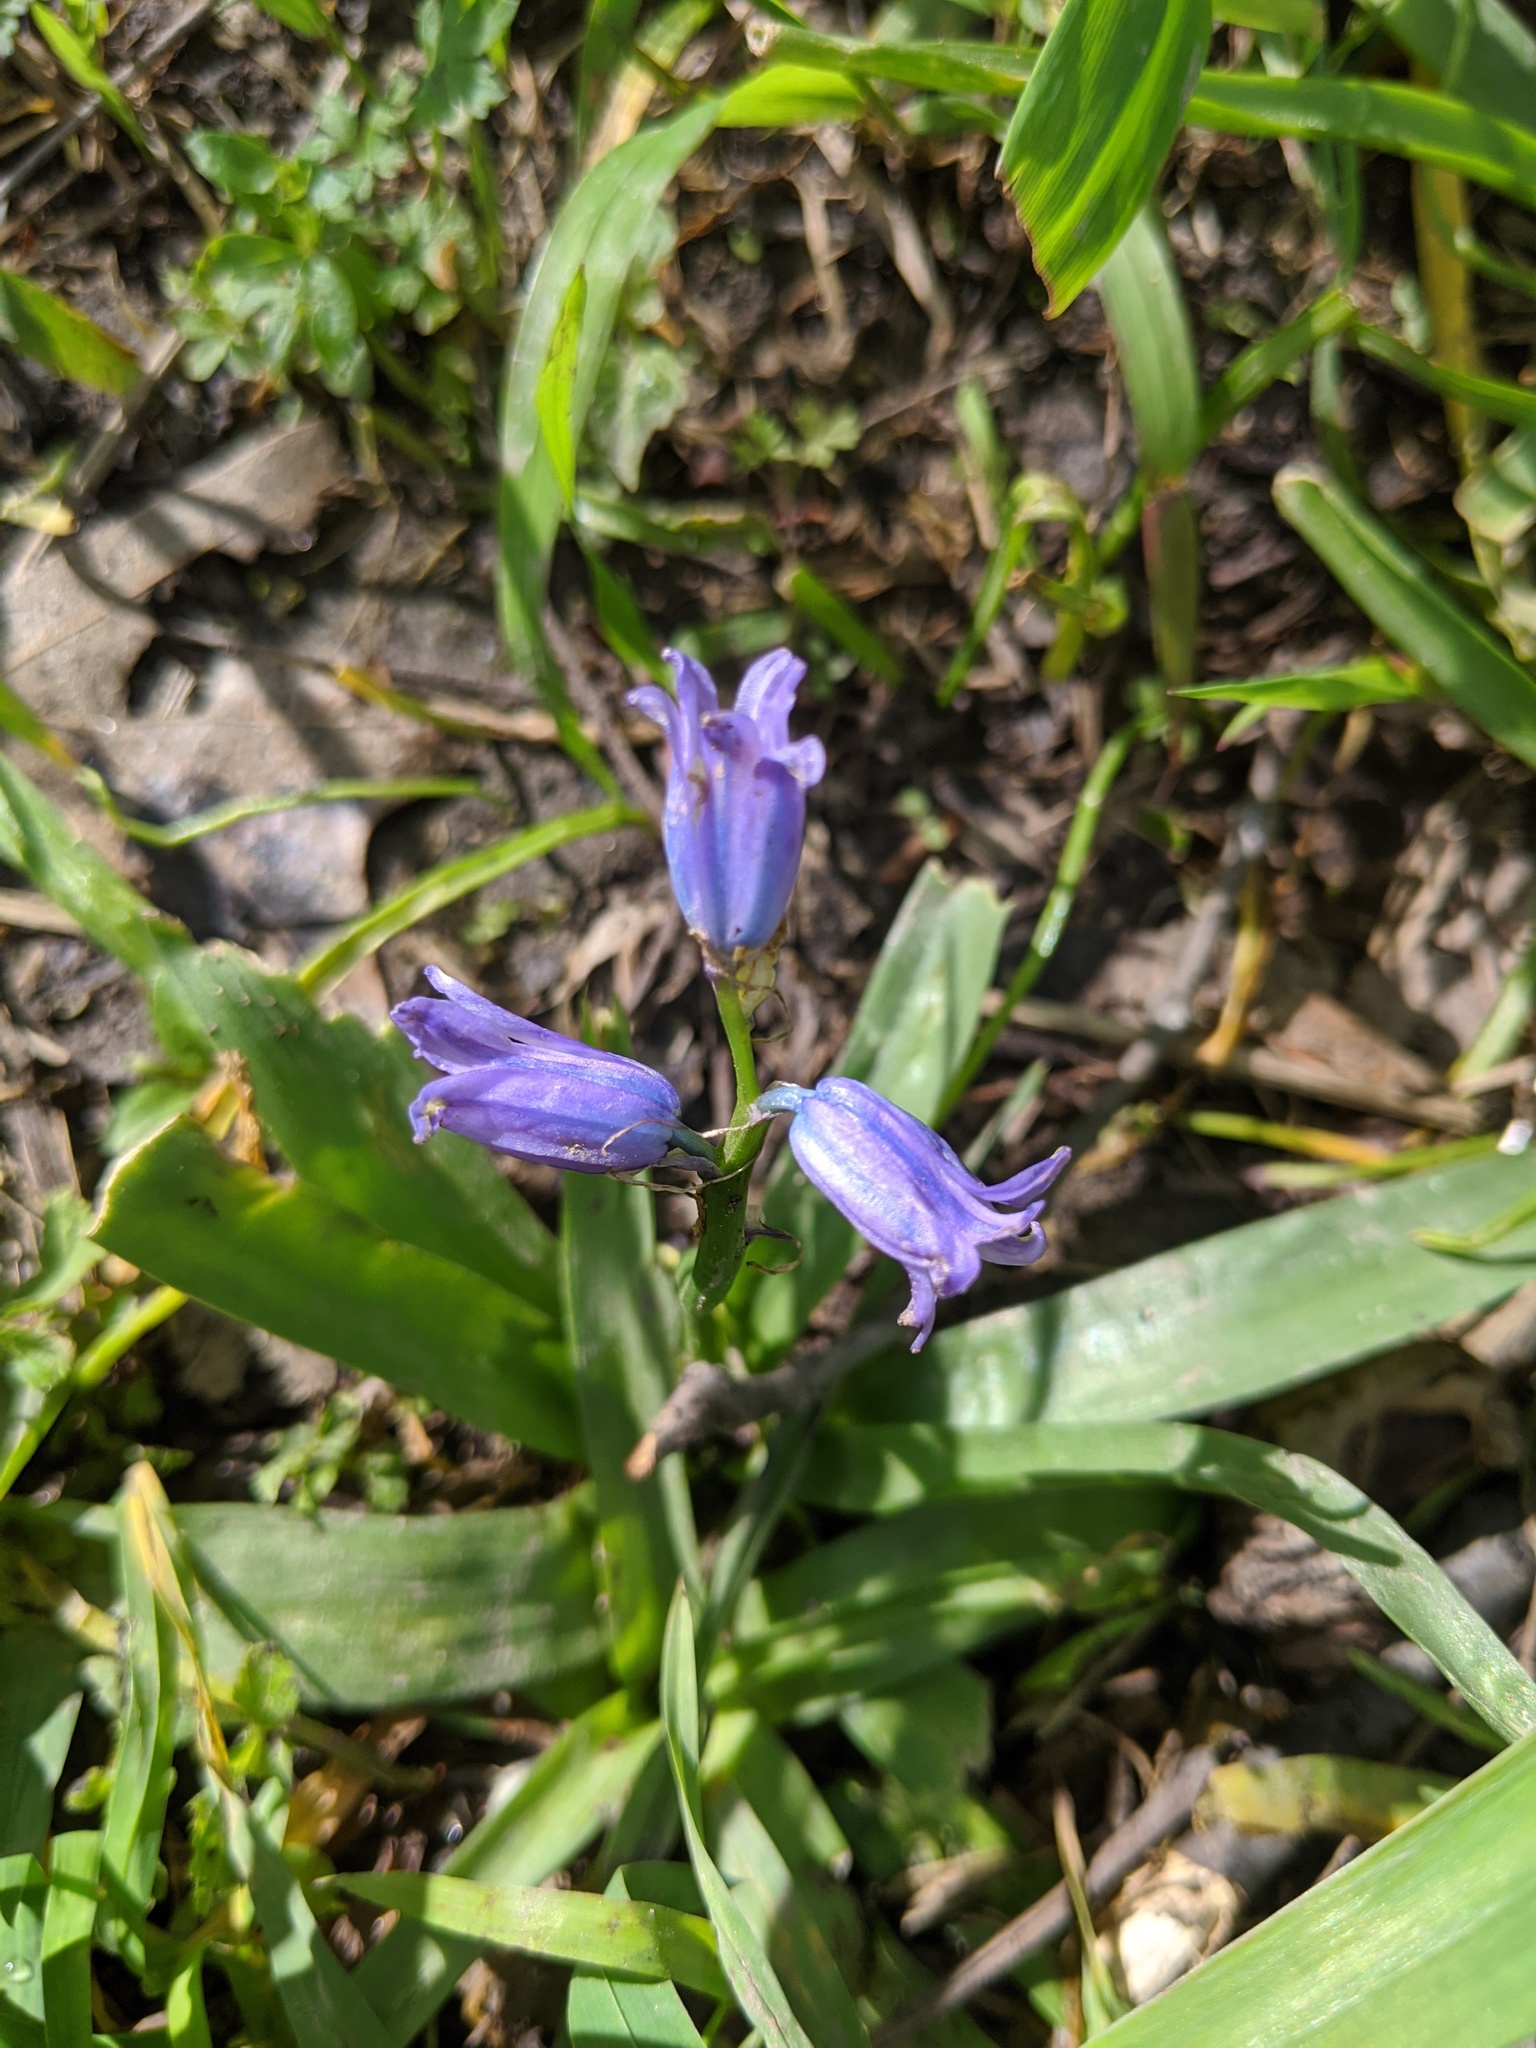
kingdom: Plantae
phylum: Tracheophyta
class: Liliopsida
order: Asparagales
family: Asparagaceae
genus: Hyacinthoides
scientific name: Hyacinthoides non-scripta
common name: Bluebell
